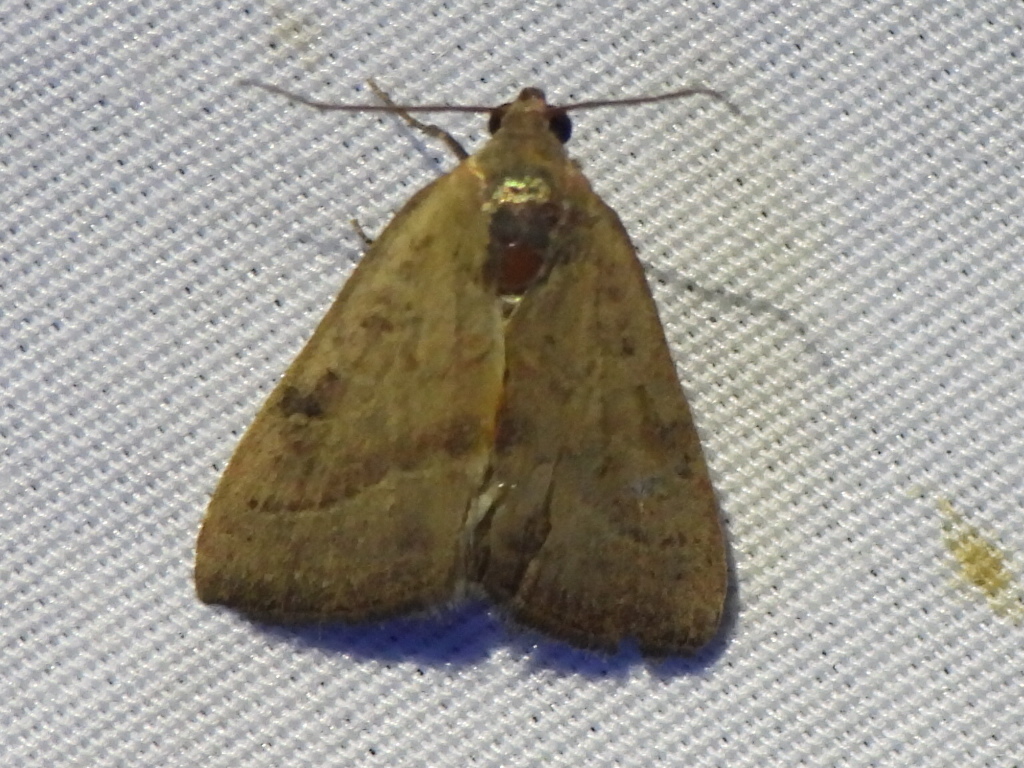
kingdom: Animalia
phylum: Arthropoda
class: Insecta
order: Lepidoptera
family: Noctuidae
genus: Galgula
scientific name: Galgula partita
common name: Wedgeling
